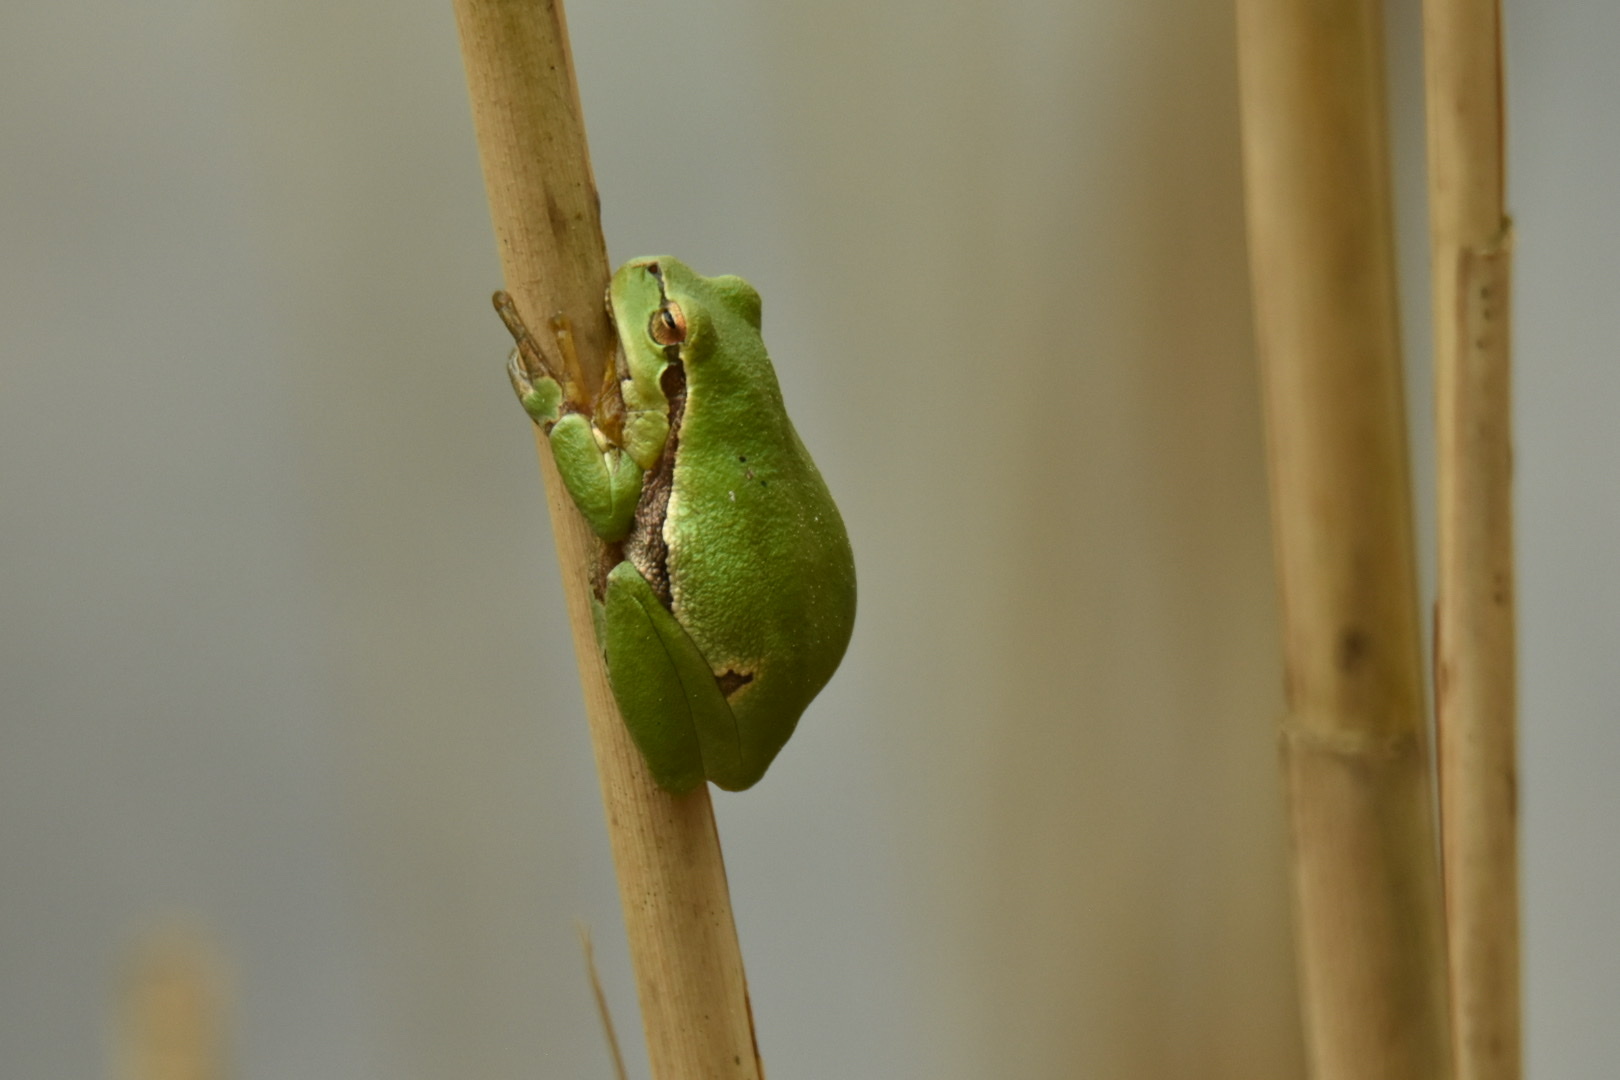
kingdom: Animalia
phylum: Chordata
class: Amphibia
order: Anura
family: Hylidae
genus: Hyla
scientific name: Hyla arborea
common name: Common tree frog
